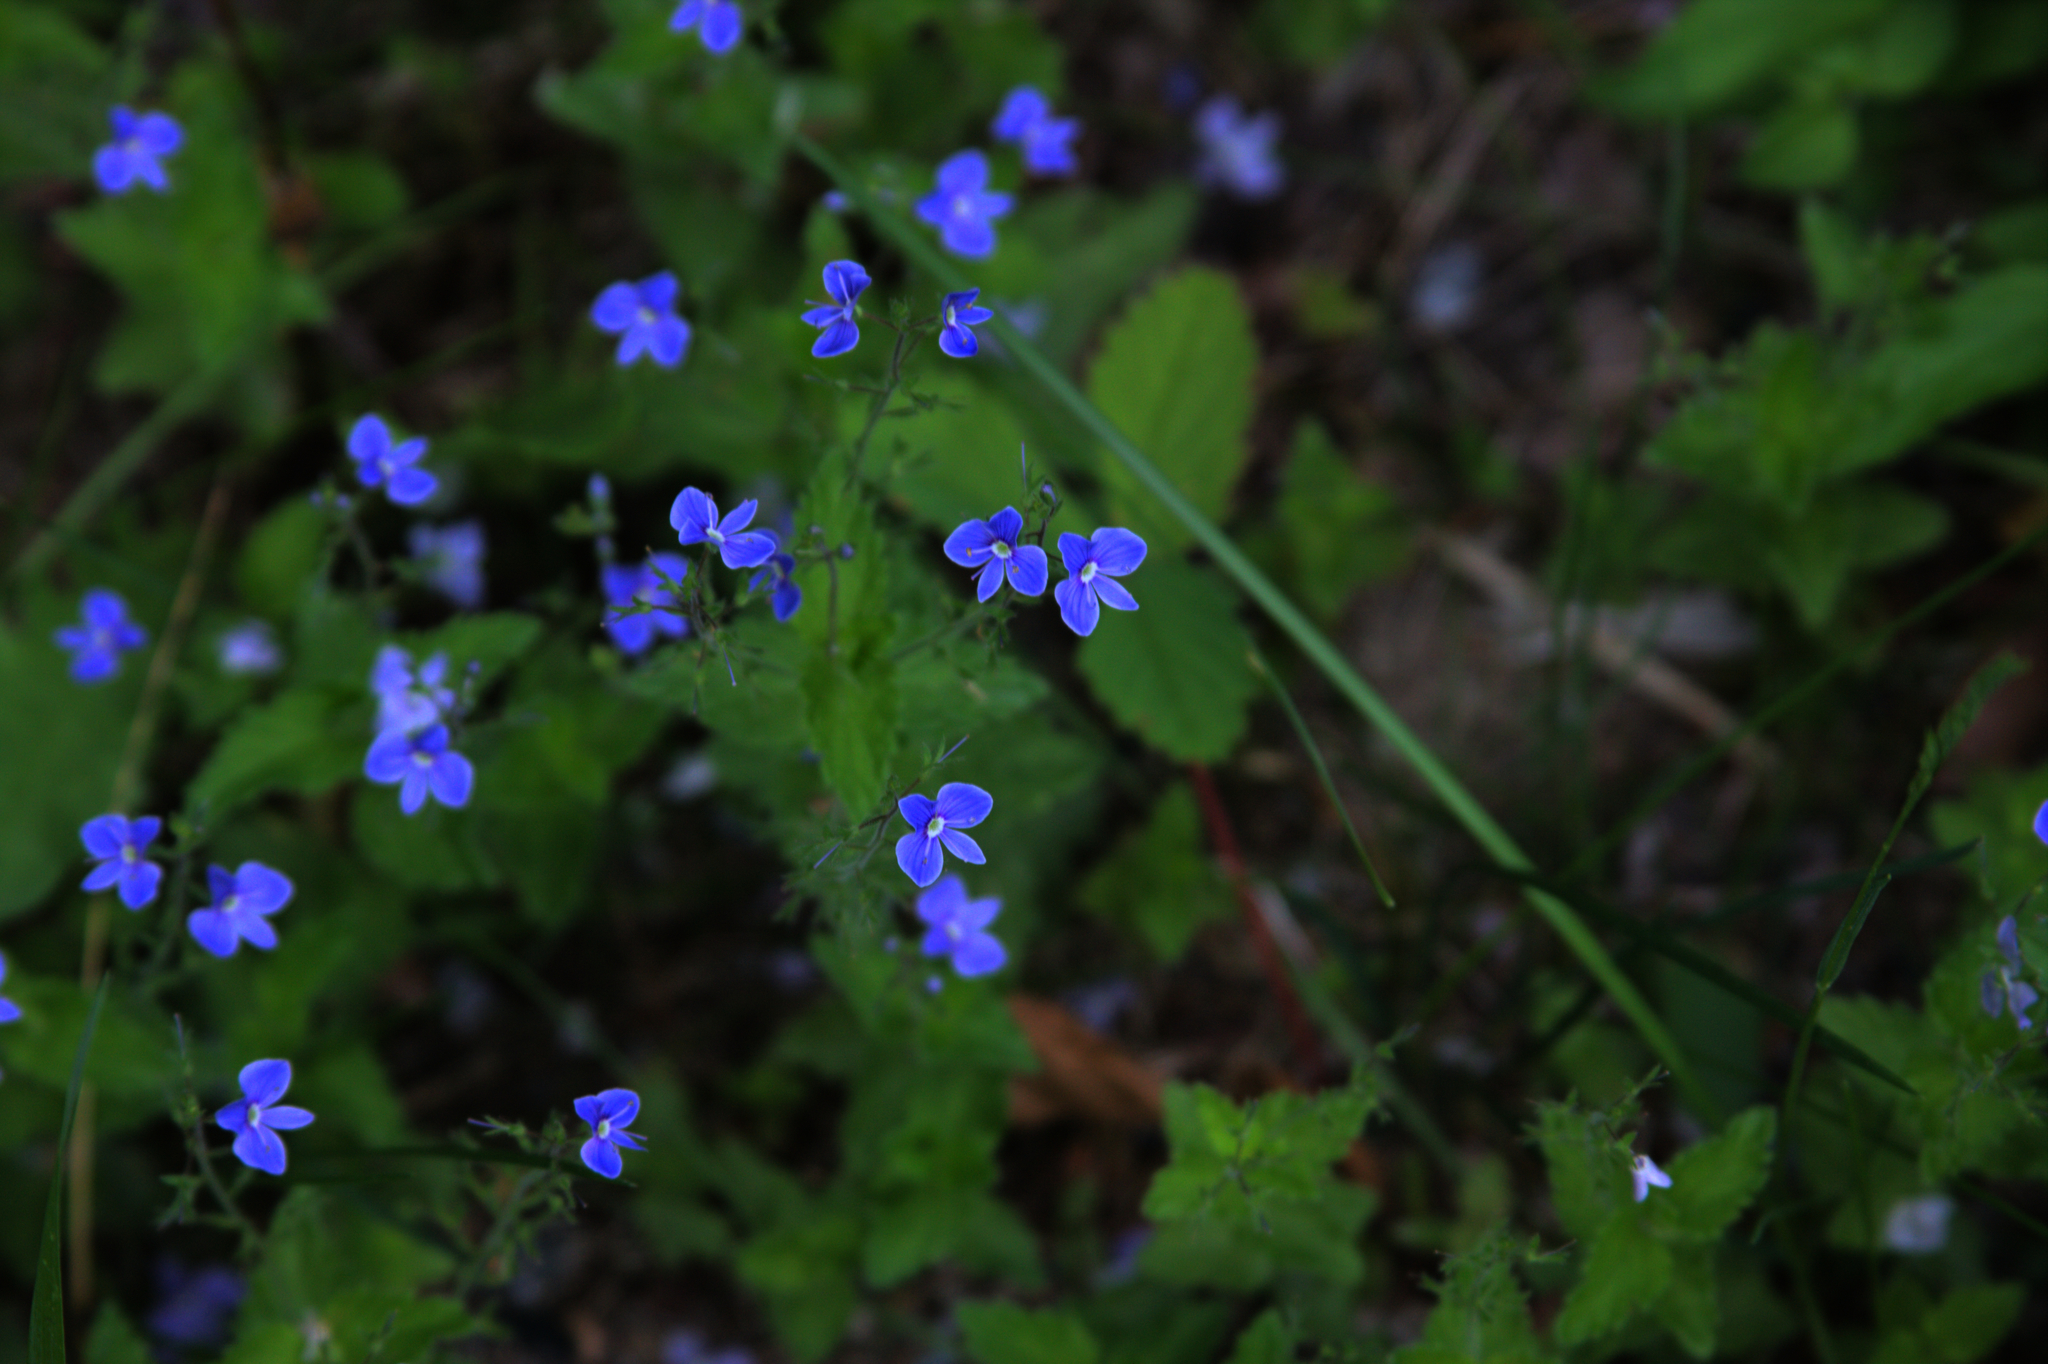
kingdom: Plantae
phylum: Tracheophyta
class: Magnoliopsida
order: Lamiales
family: Plantaginaceae
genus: Veronica
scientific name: Veronica chamaedrys
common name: Germander speedwell
